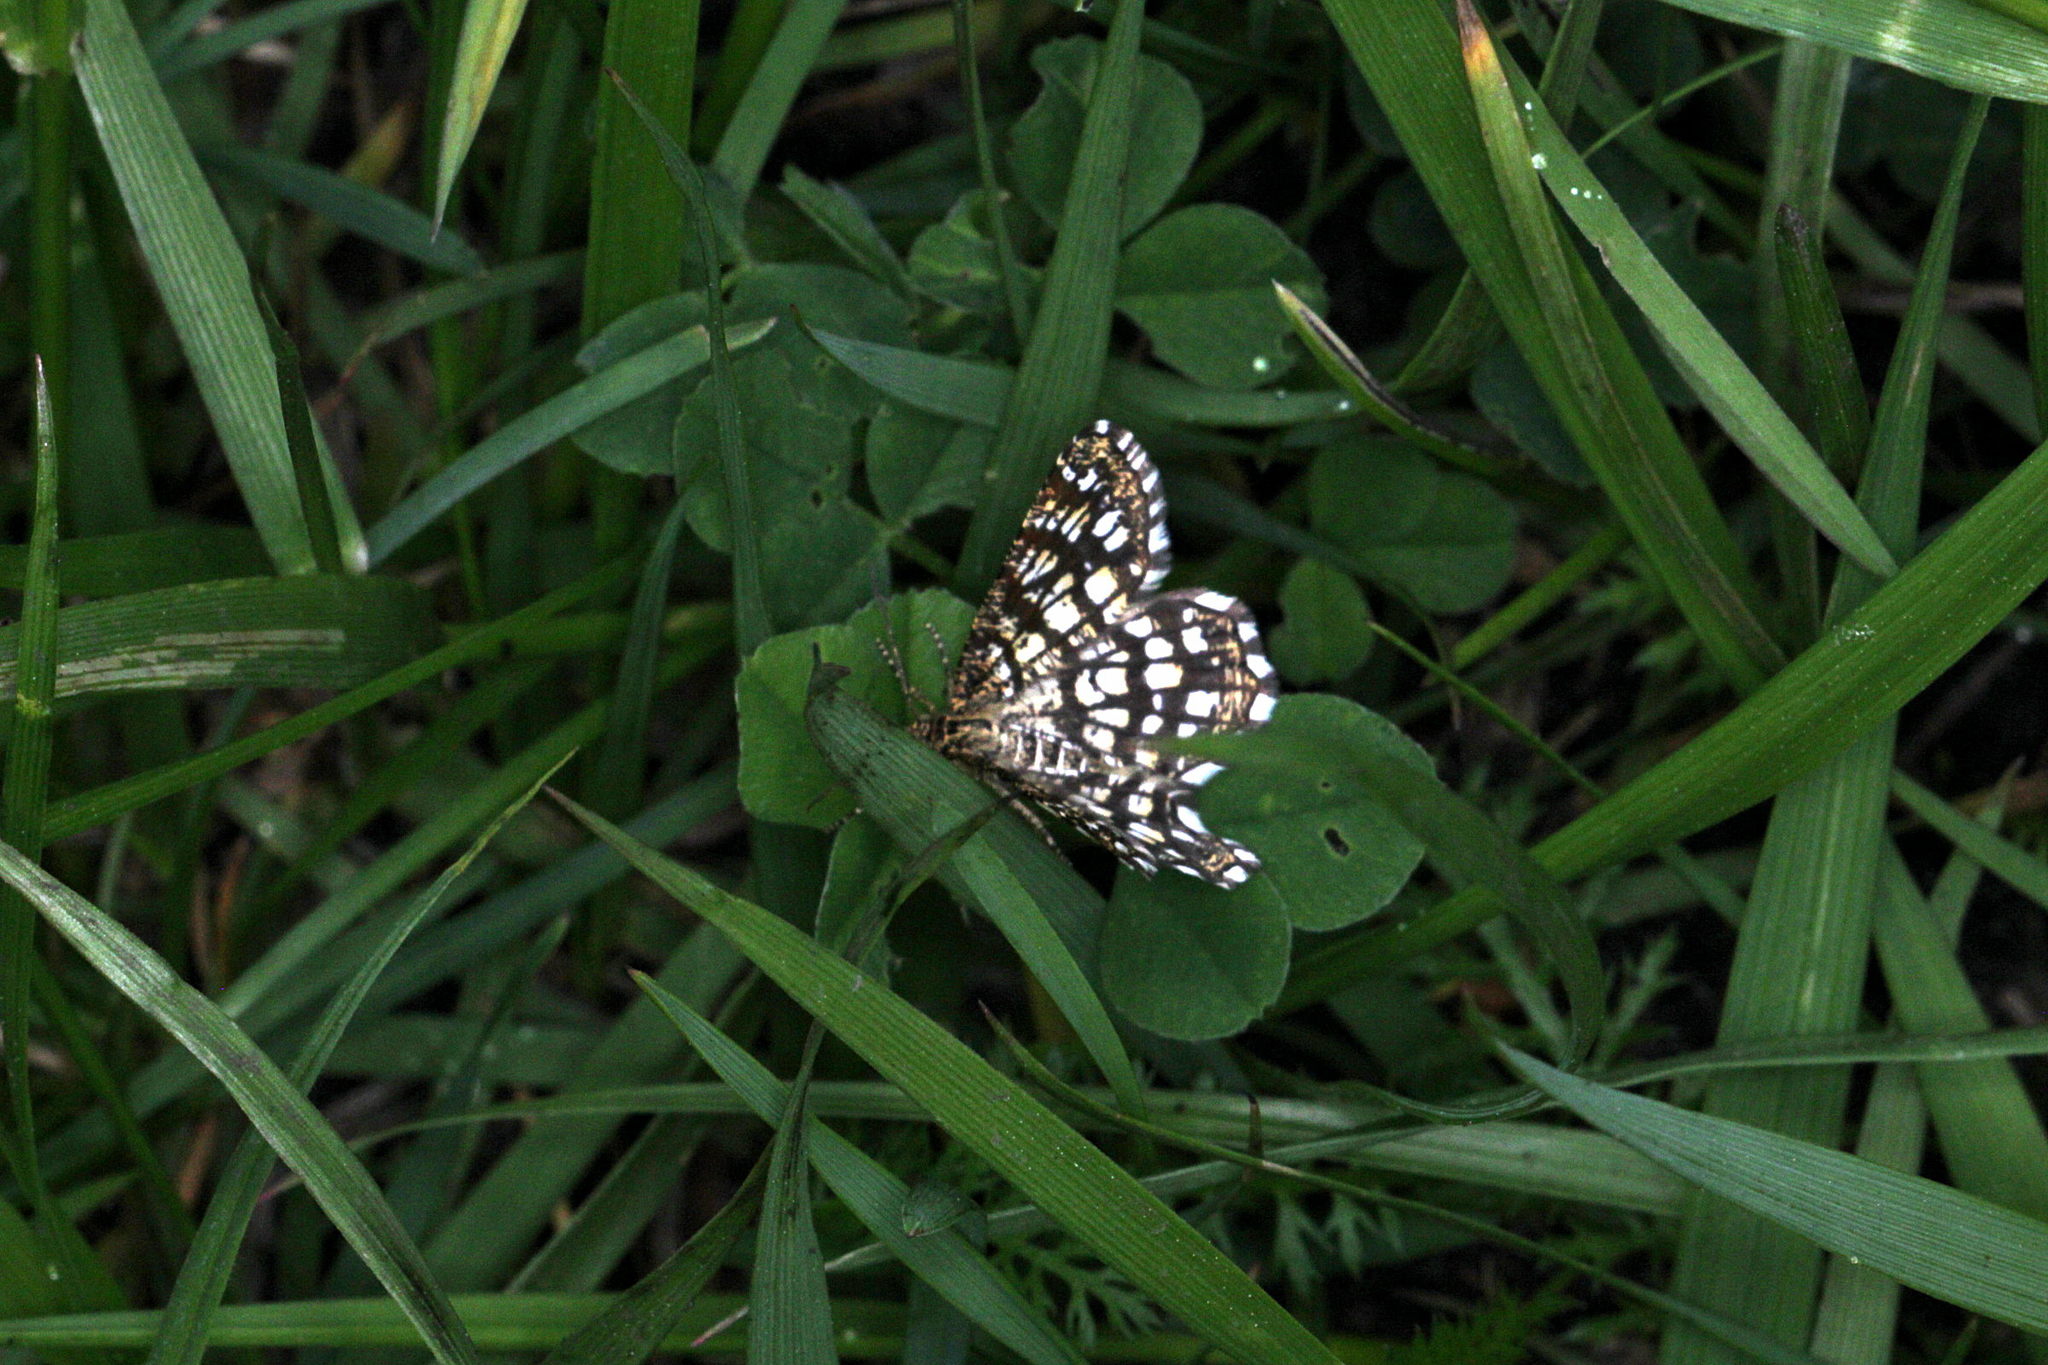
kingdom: Animalia
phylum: Arthropoda
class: Insecta
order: Lepidoptera
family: Geometridae
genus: Chiasmia
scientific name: Chiasmia clathrata
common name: Latticed heath
